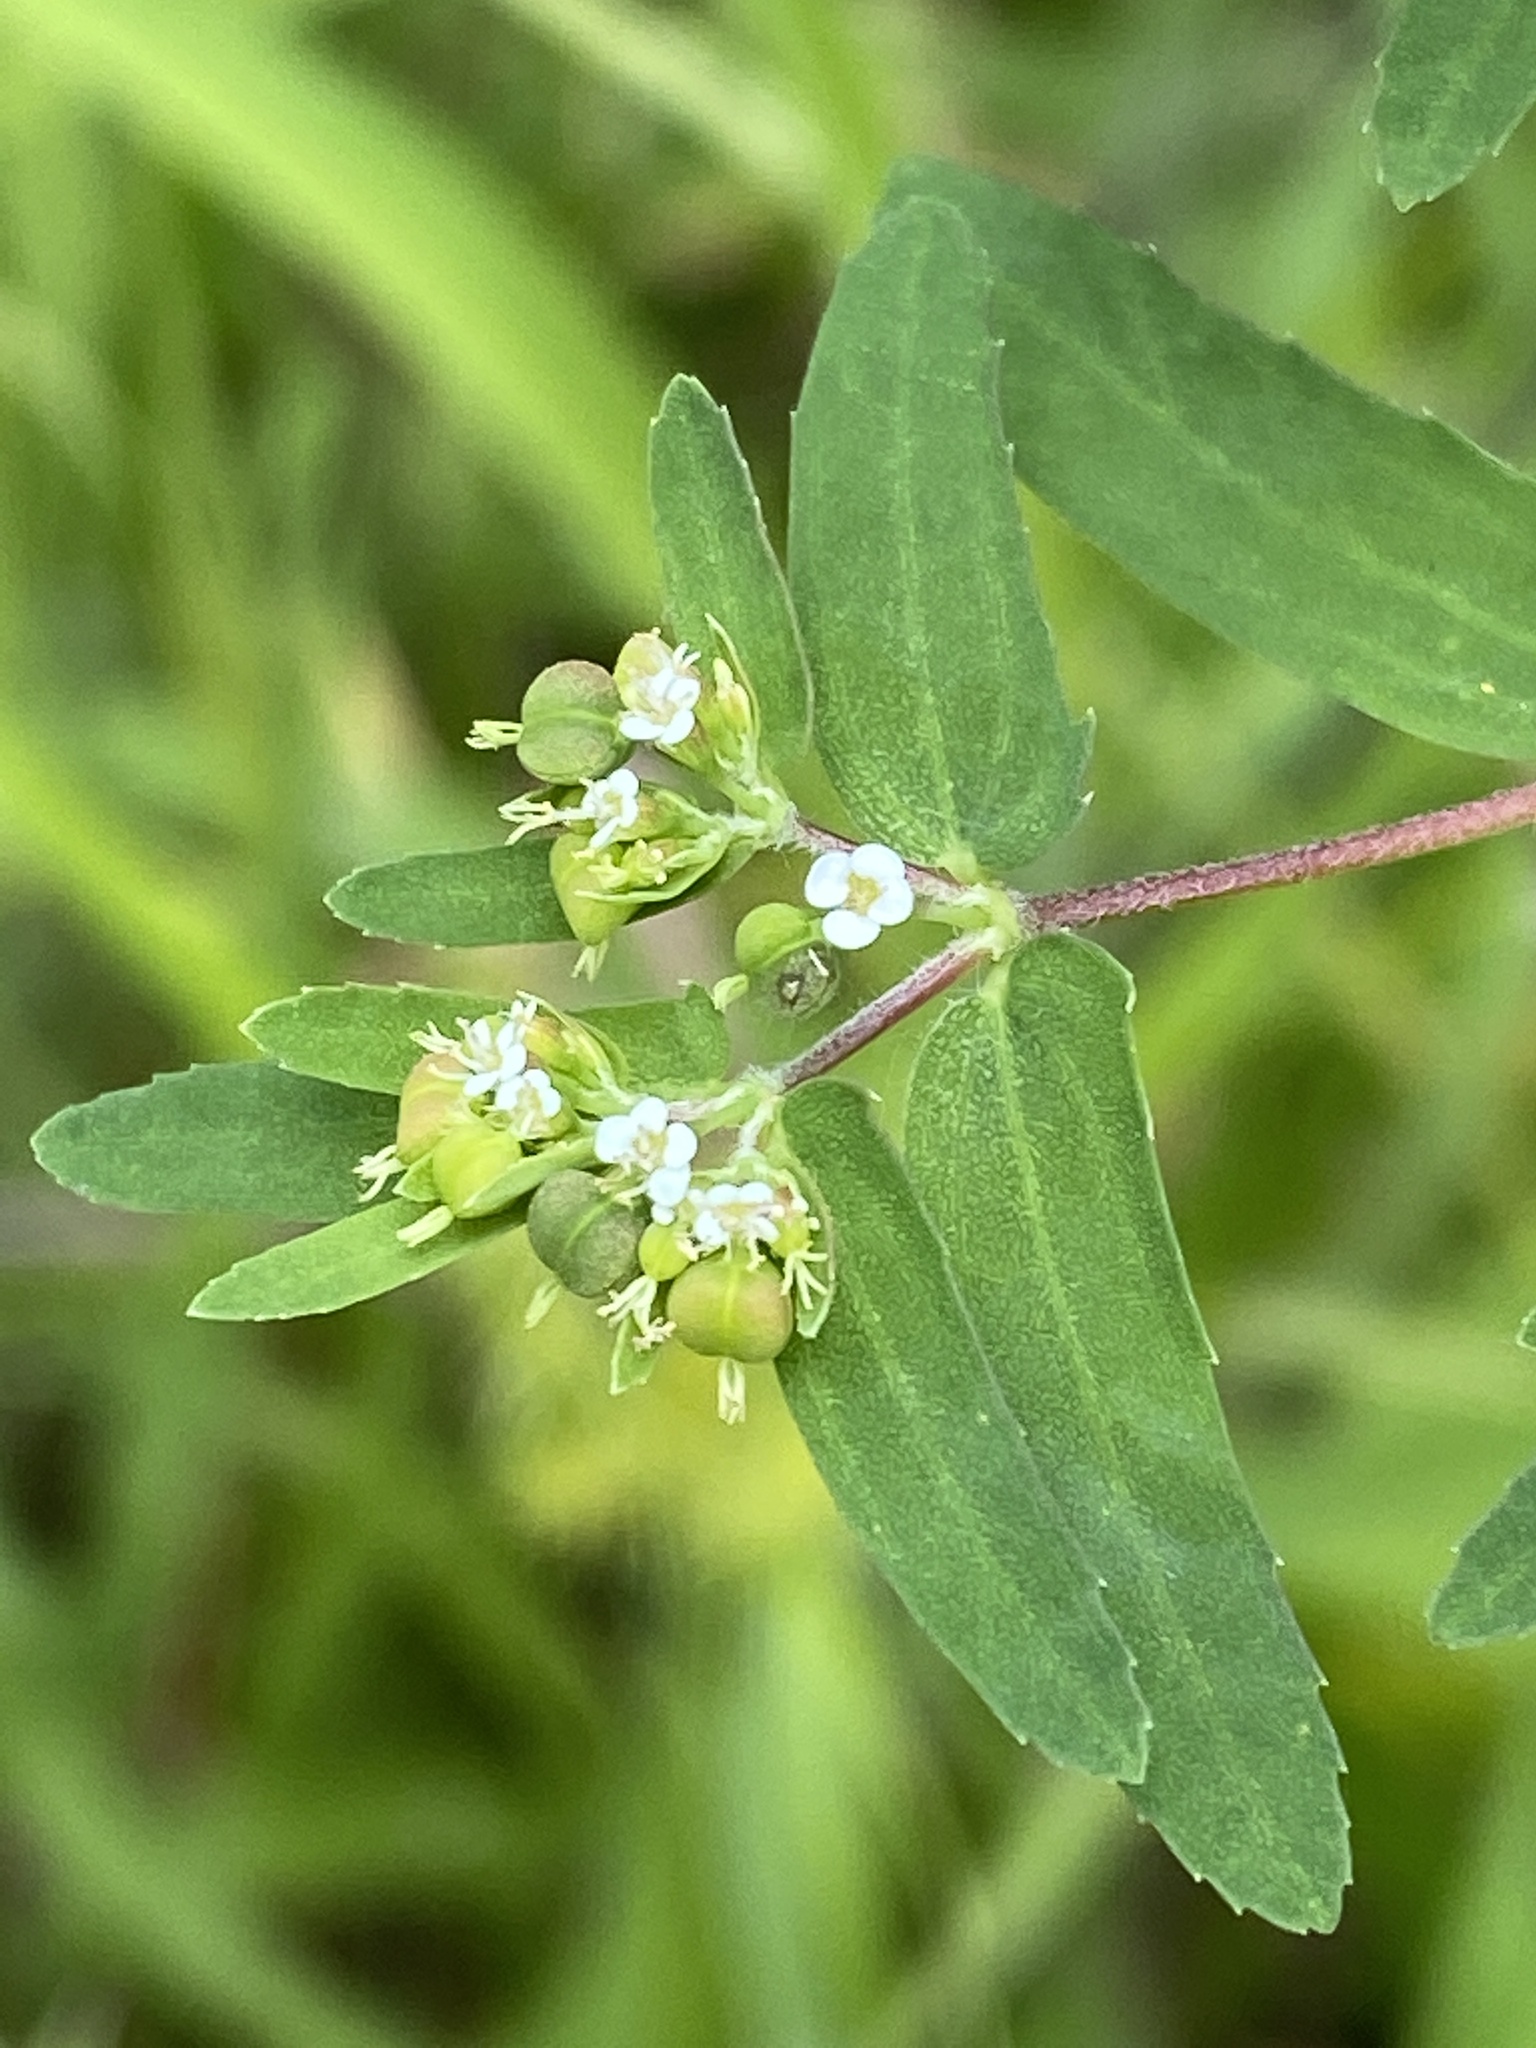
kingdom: Plantae
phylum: Tracheophyta
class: Magnoliopsida
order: Malpighiales
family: Euphorbiaceae
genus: Euphorbia
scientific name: Euphorbia nutans
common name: Eyebane
